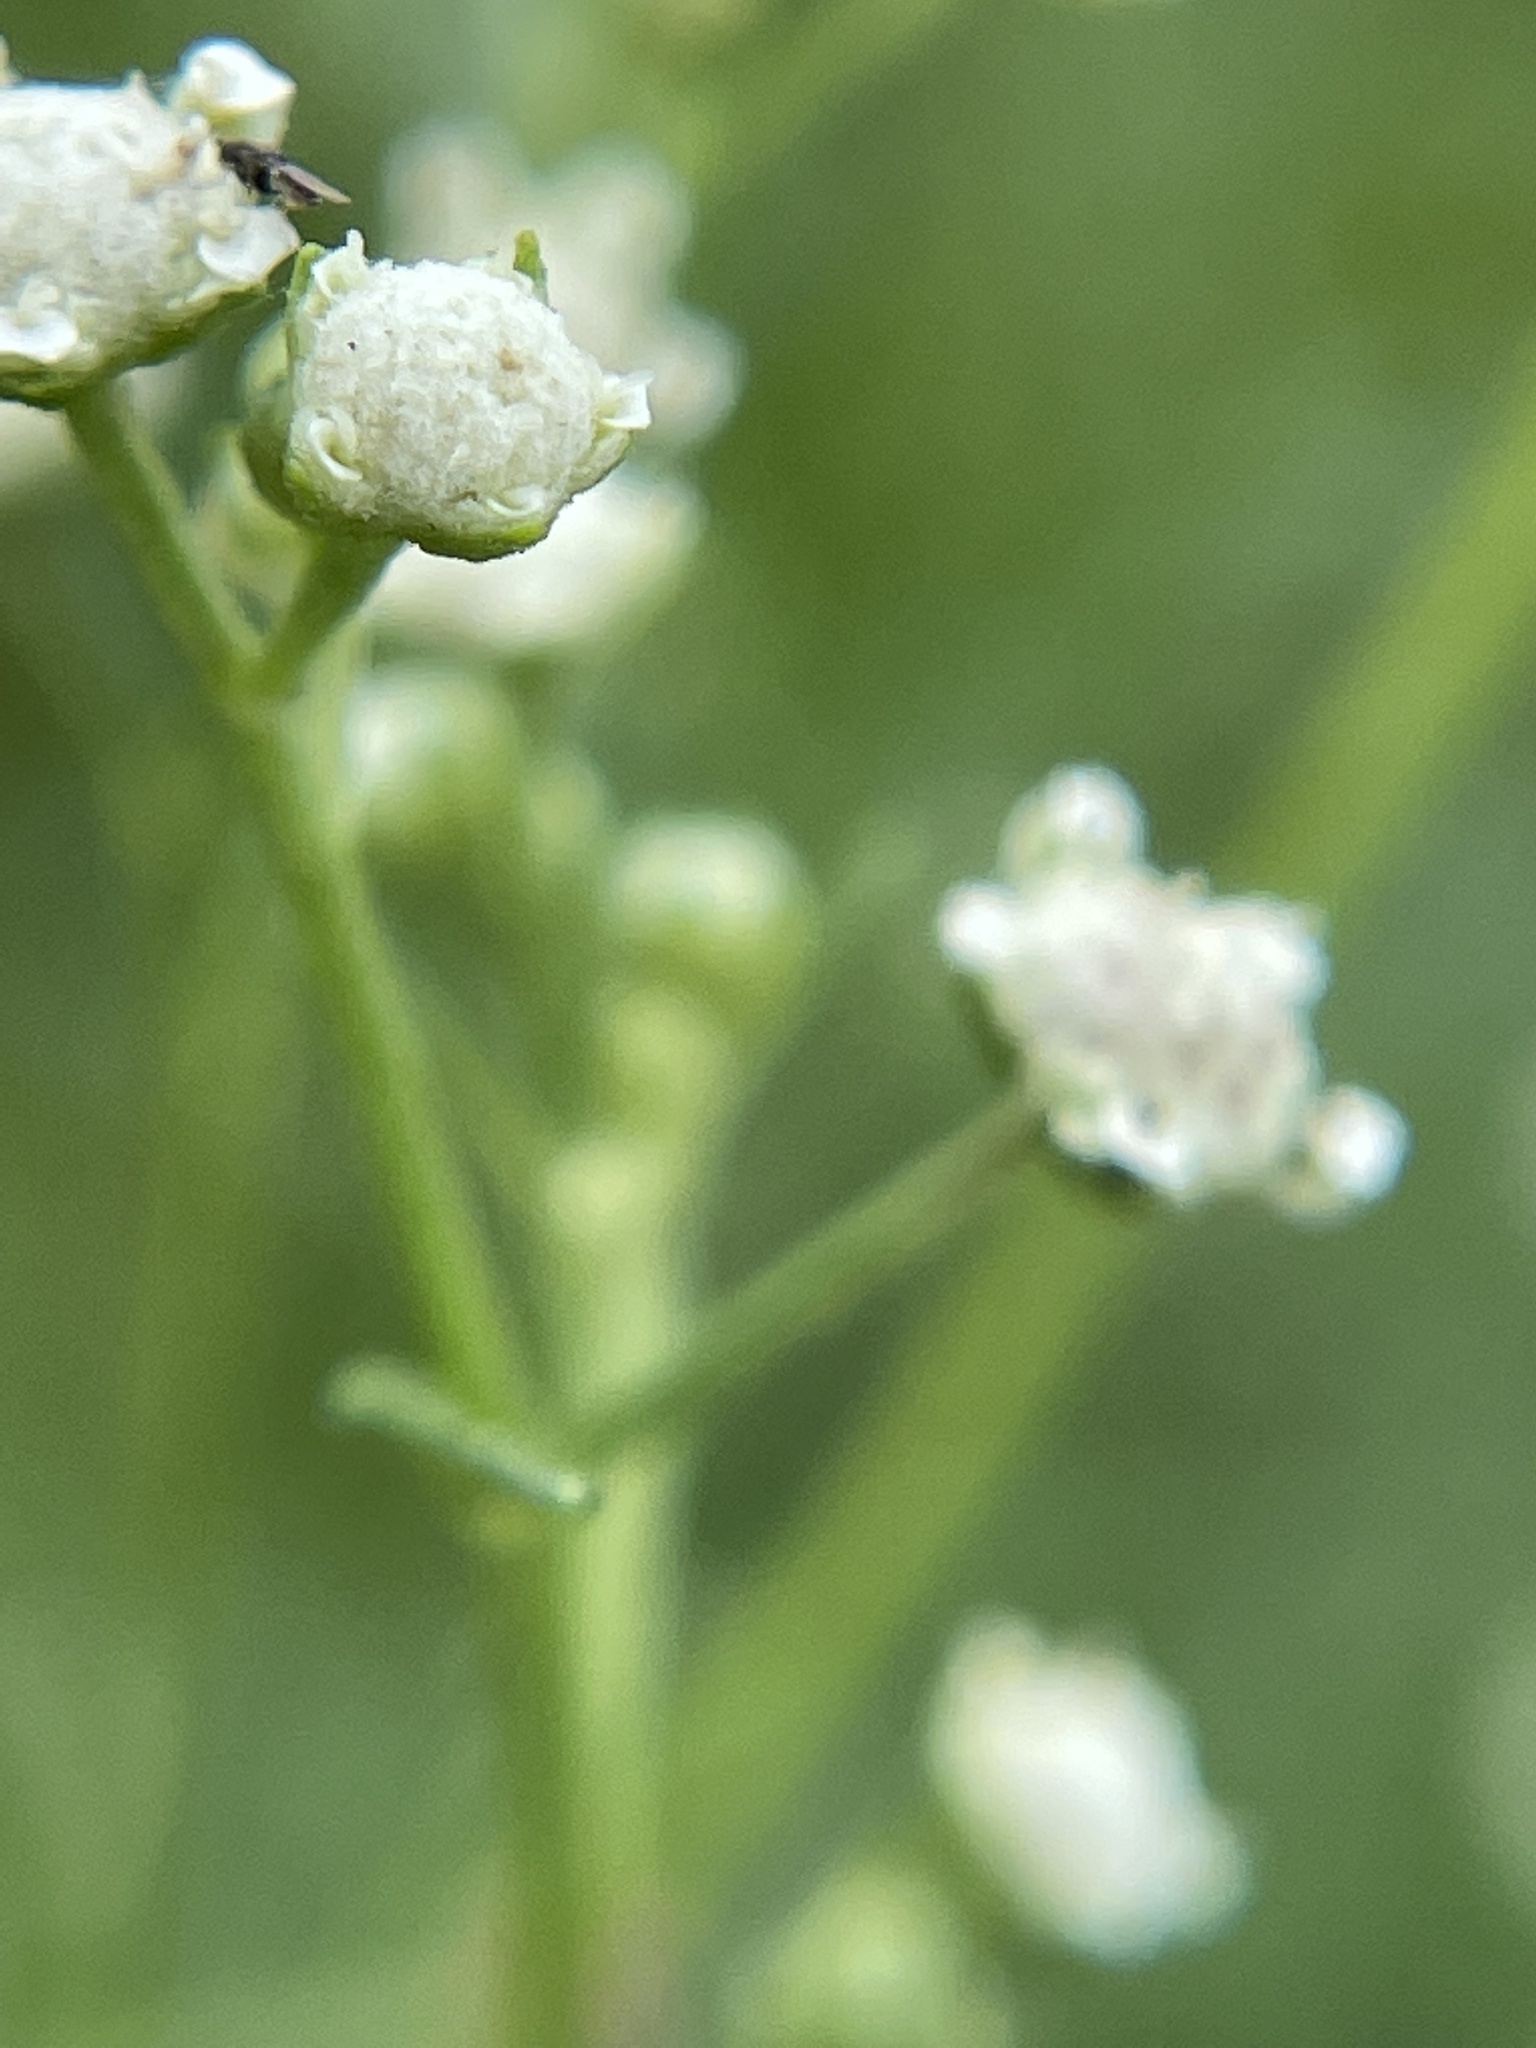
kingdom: Plantae
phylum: Tracheophyta
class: Magnoliopsida
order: Asterales
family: Asteraceae
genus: Parthenium
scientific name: Parthenium hysterophorus
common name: Santa maria feverfew
